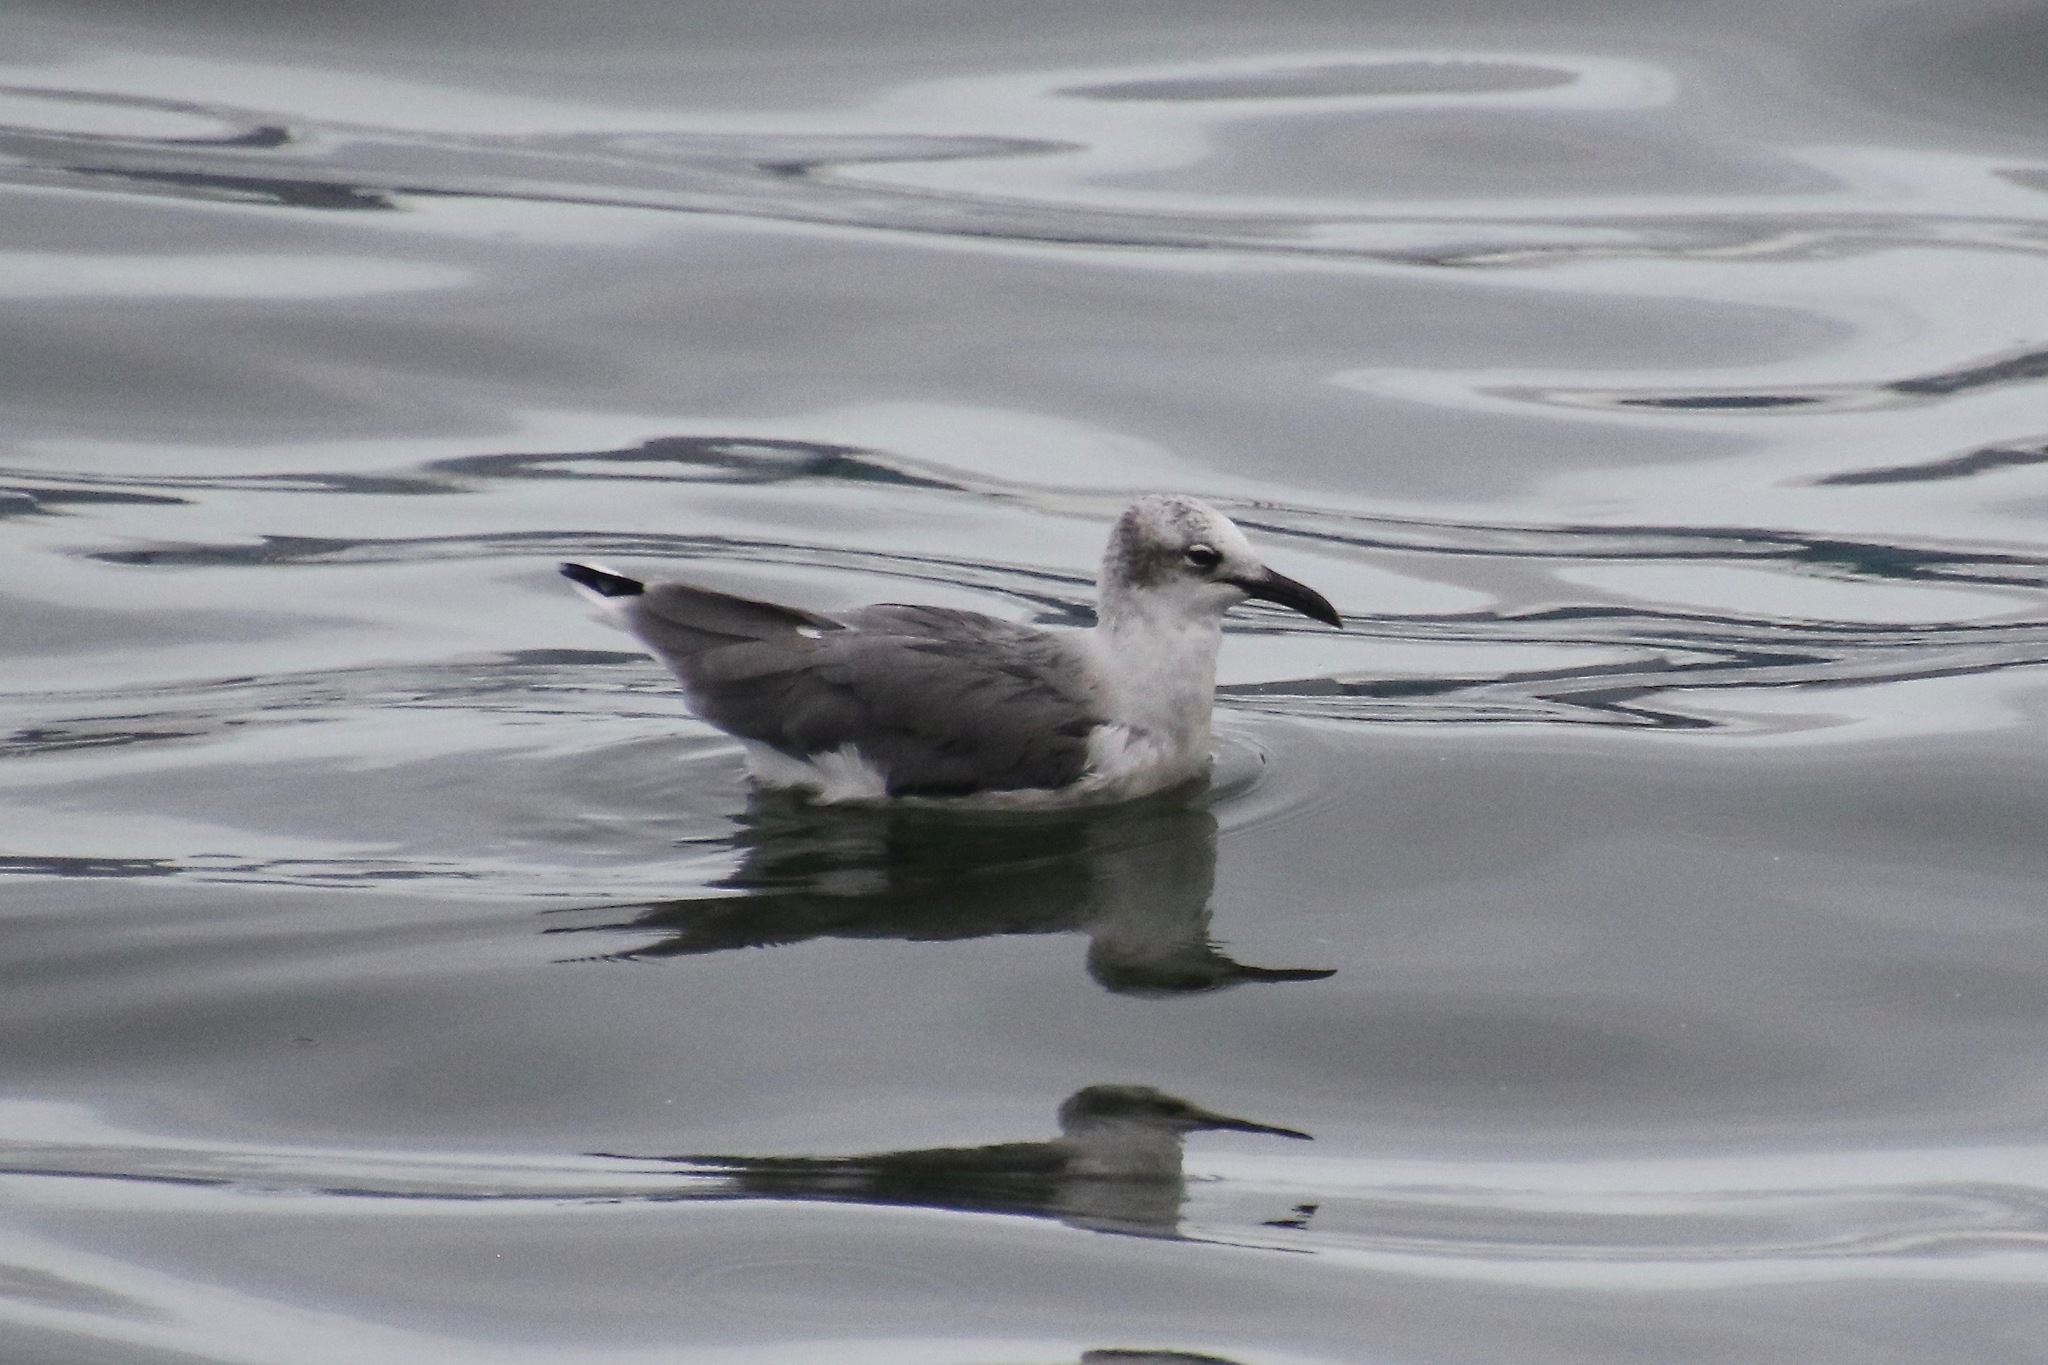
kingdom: Animalia
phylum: Chordata
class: Aves
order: Charadriiformes
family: Laridae
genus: Leucophaeus
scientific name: Leucophaeus atricilla
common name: Laughing gull
